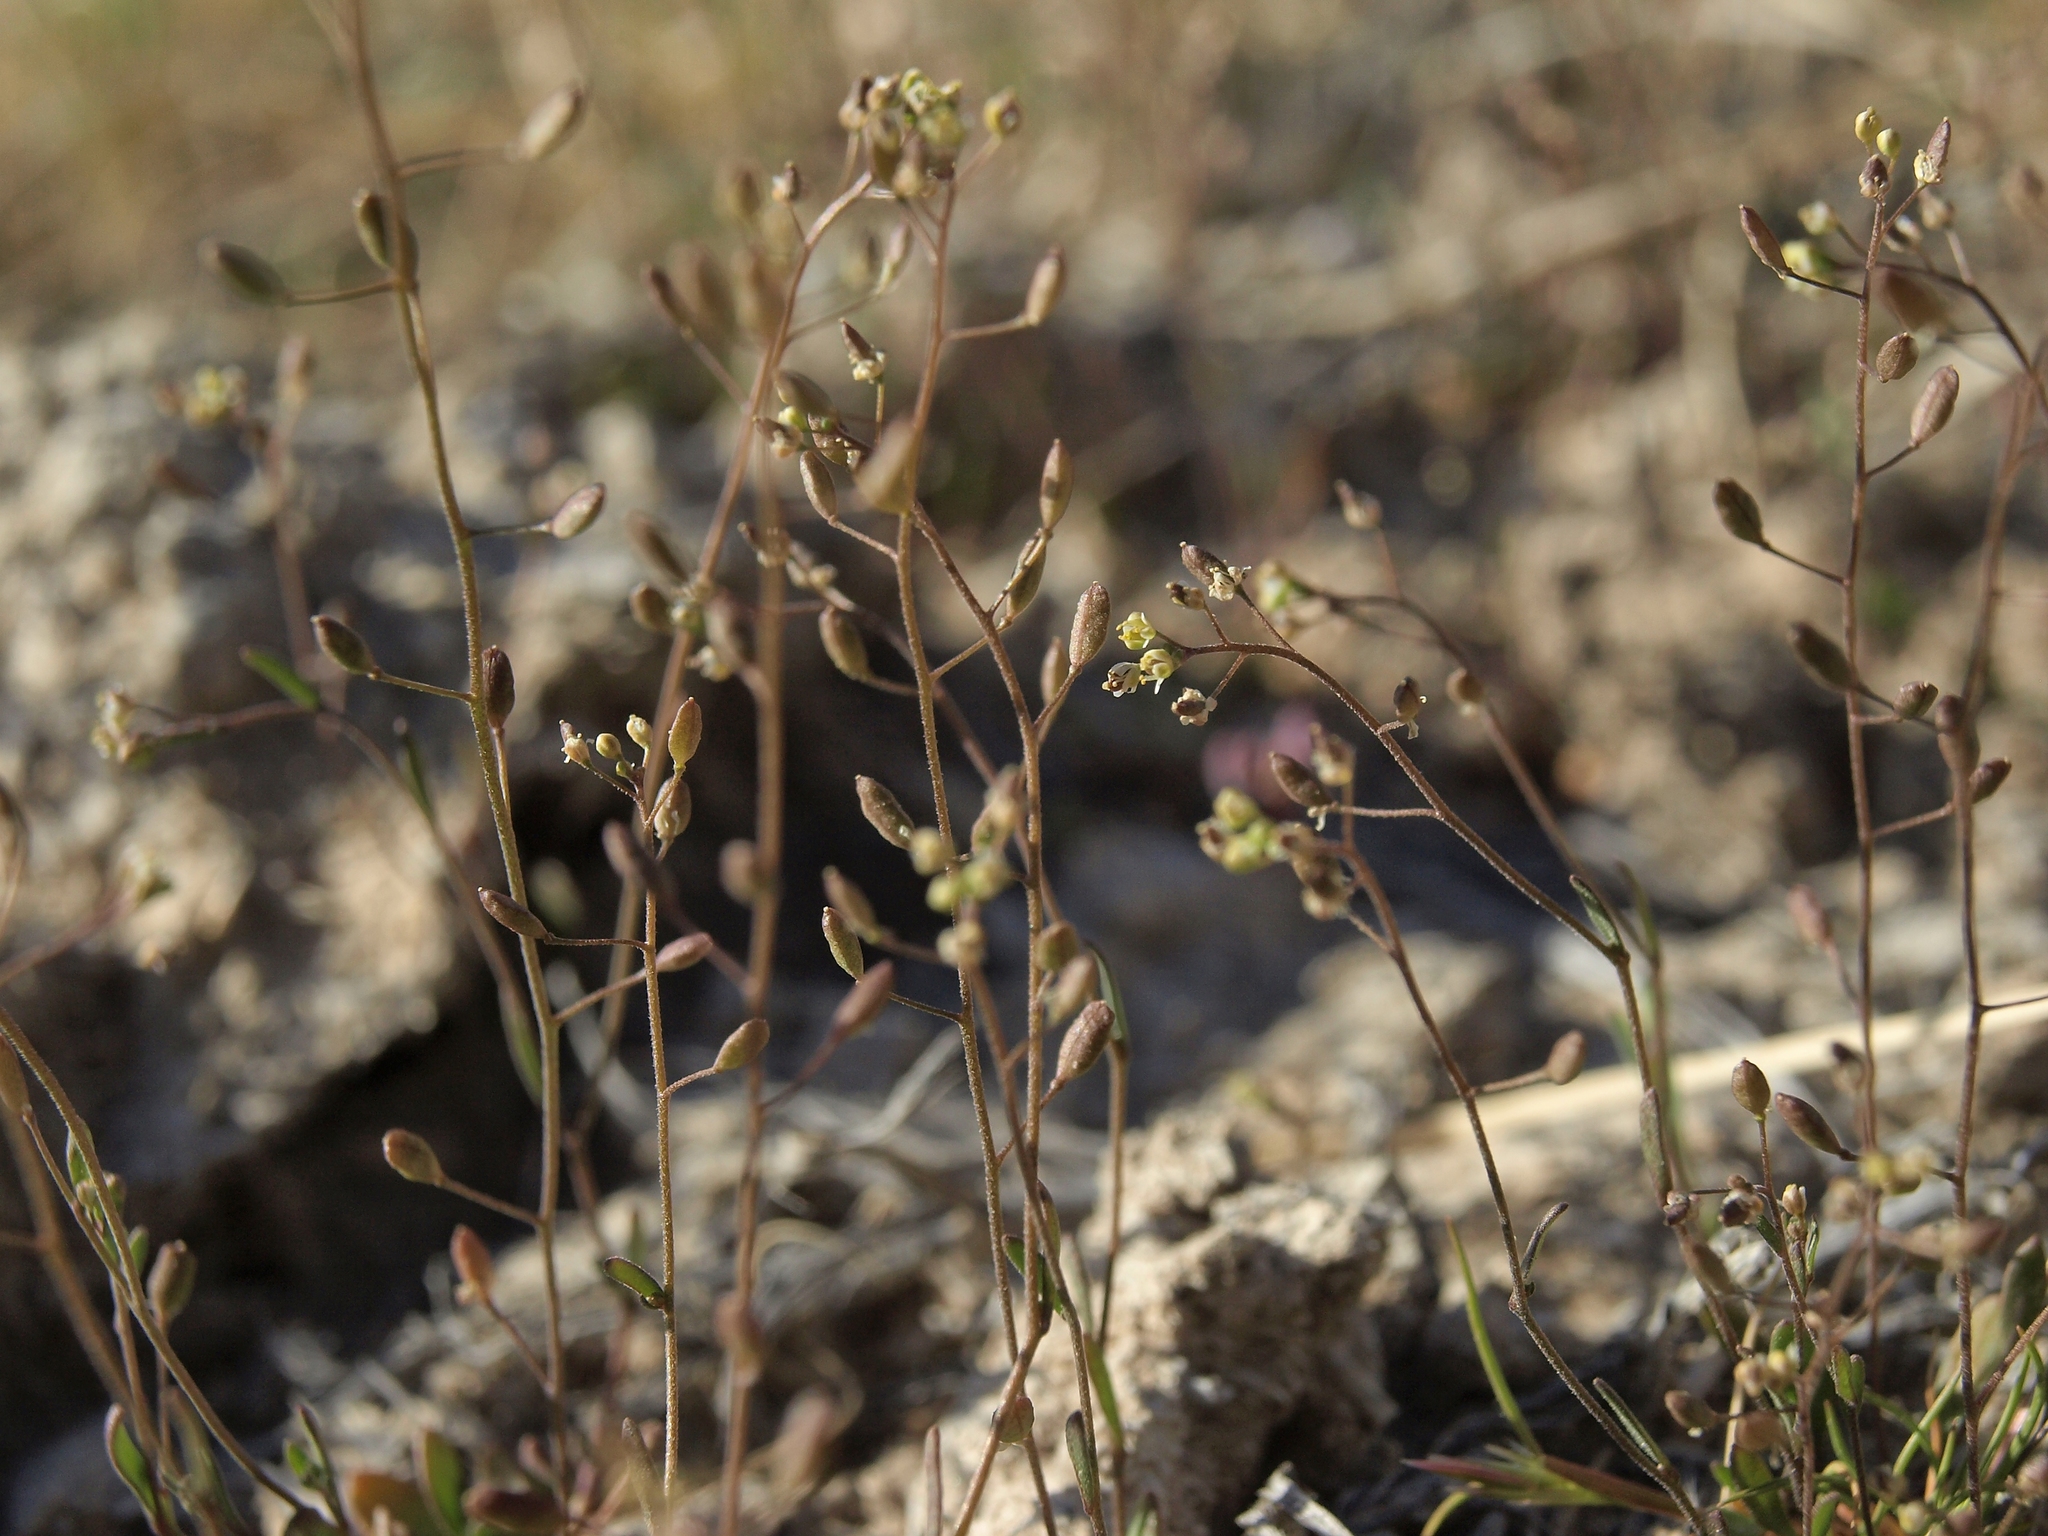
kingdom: Plantae
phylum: Tracheophyta
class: Magnoliopsida
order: Brassicales
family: Brassicaceae
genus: Hornungia
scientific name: Hornungia procumbens
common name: Oval purse
